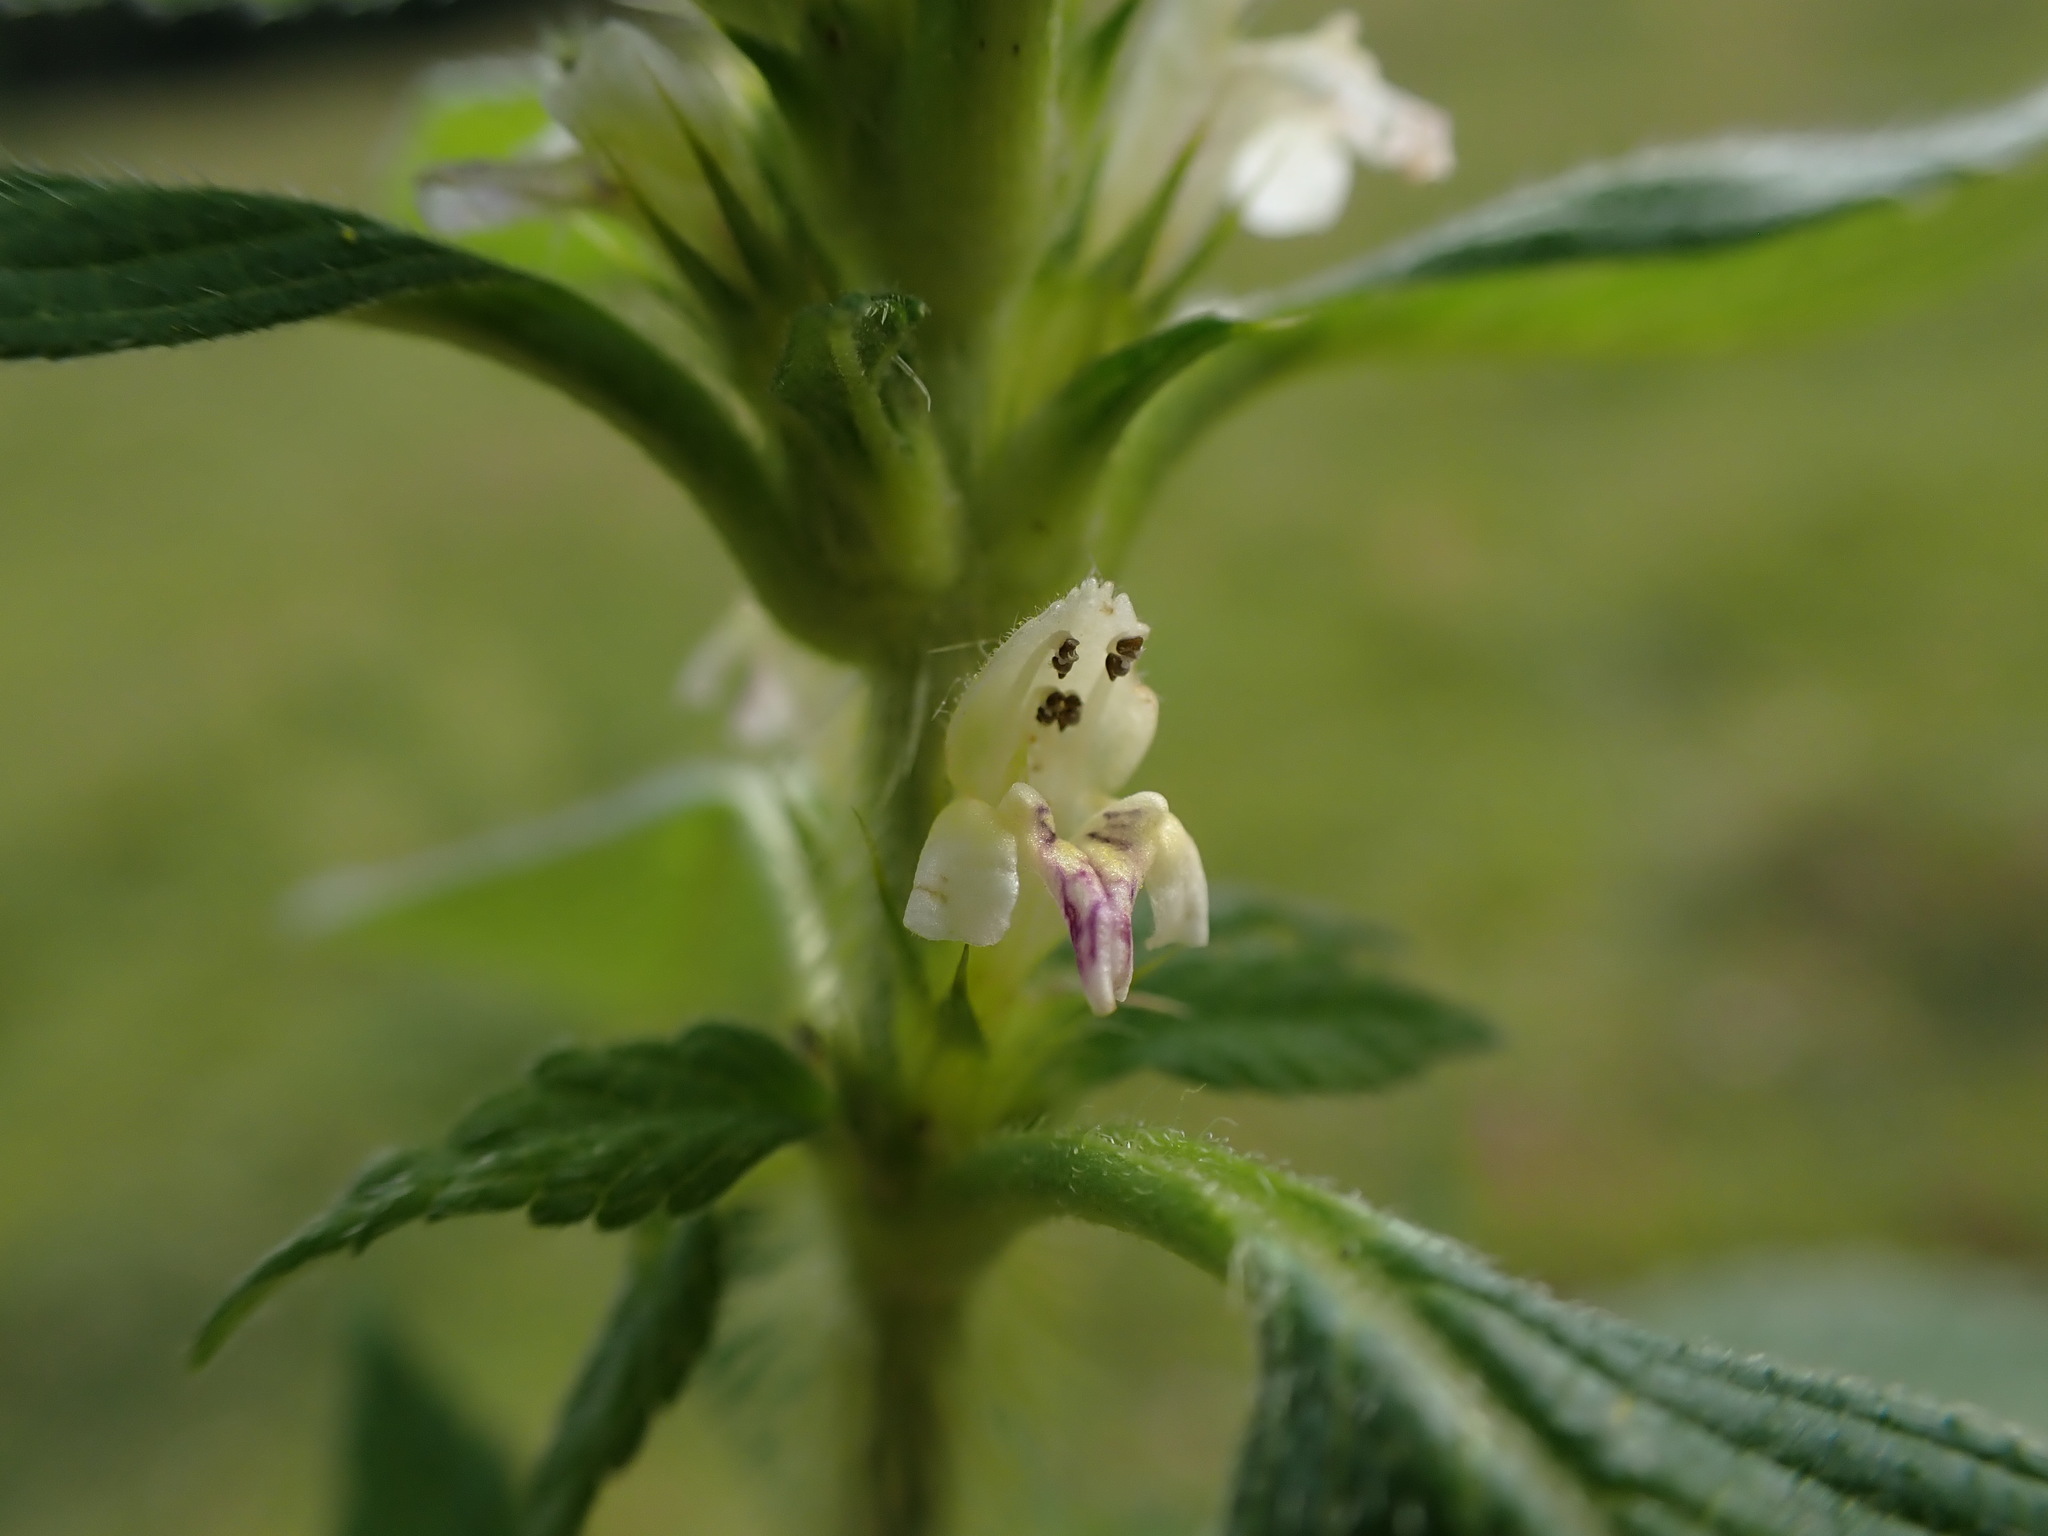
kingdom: Plantae
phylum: Tracheophyta
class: Magnoliopsida
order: Lamiales
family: Lamiaceae
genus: Galeopsis
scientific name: Galeopsis speciosa
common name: Large-flowered hemp-nettle
